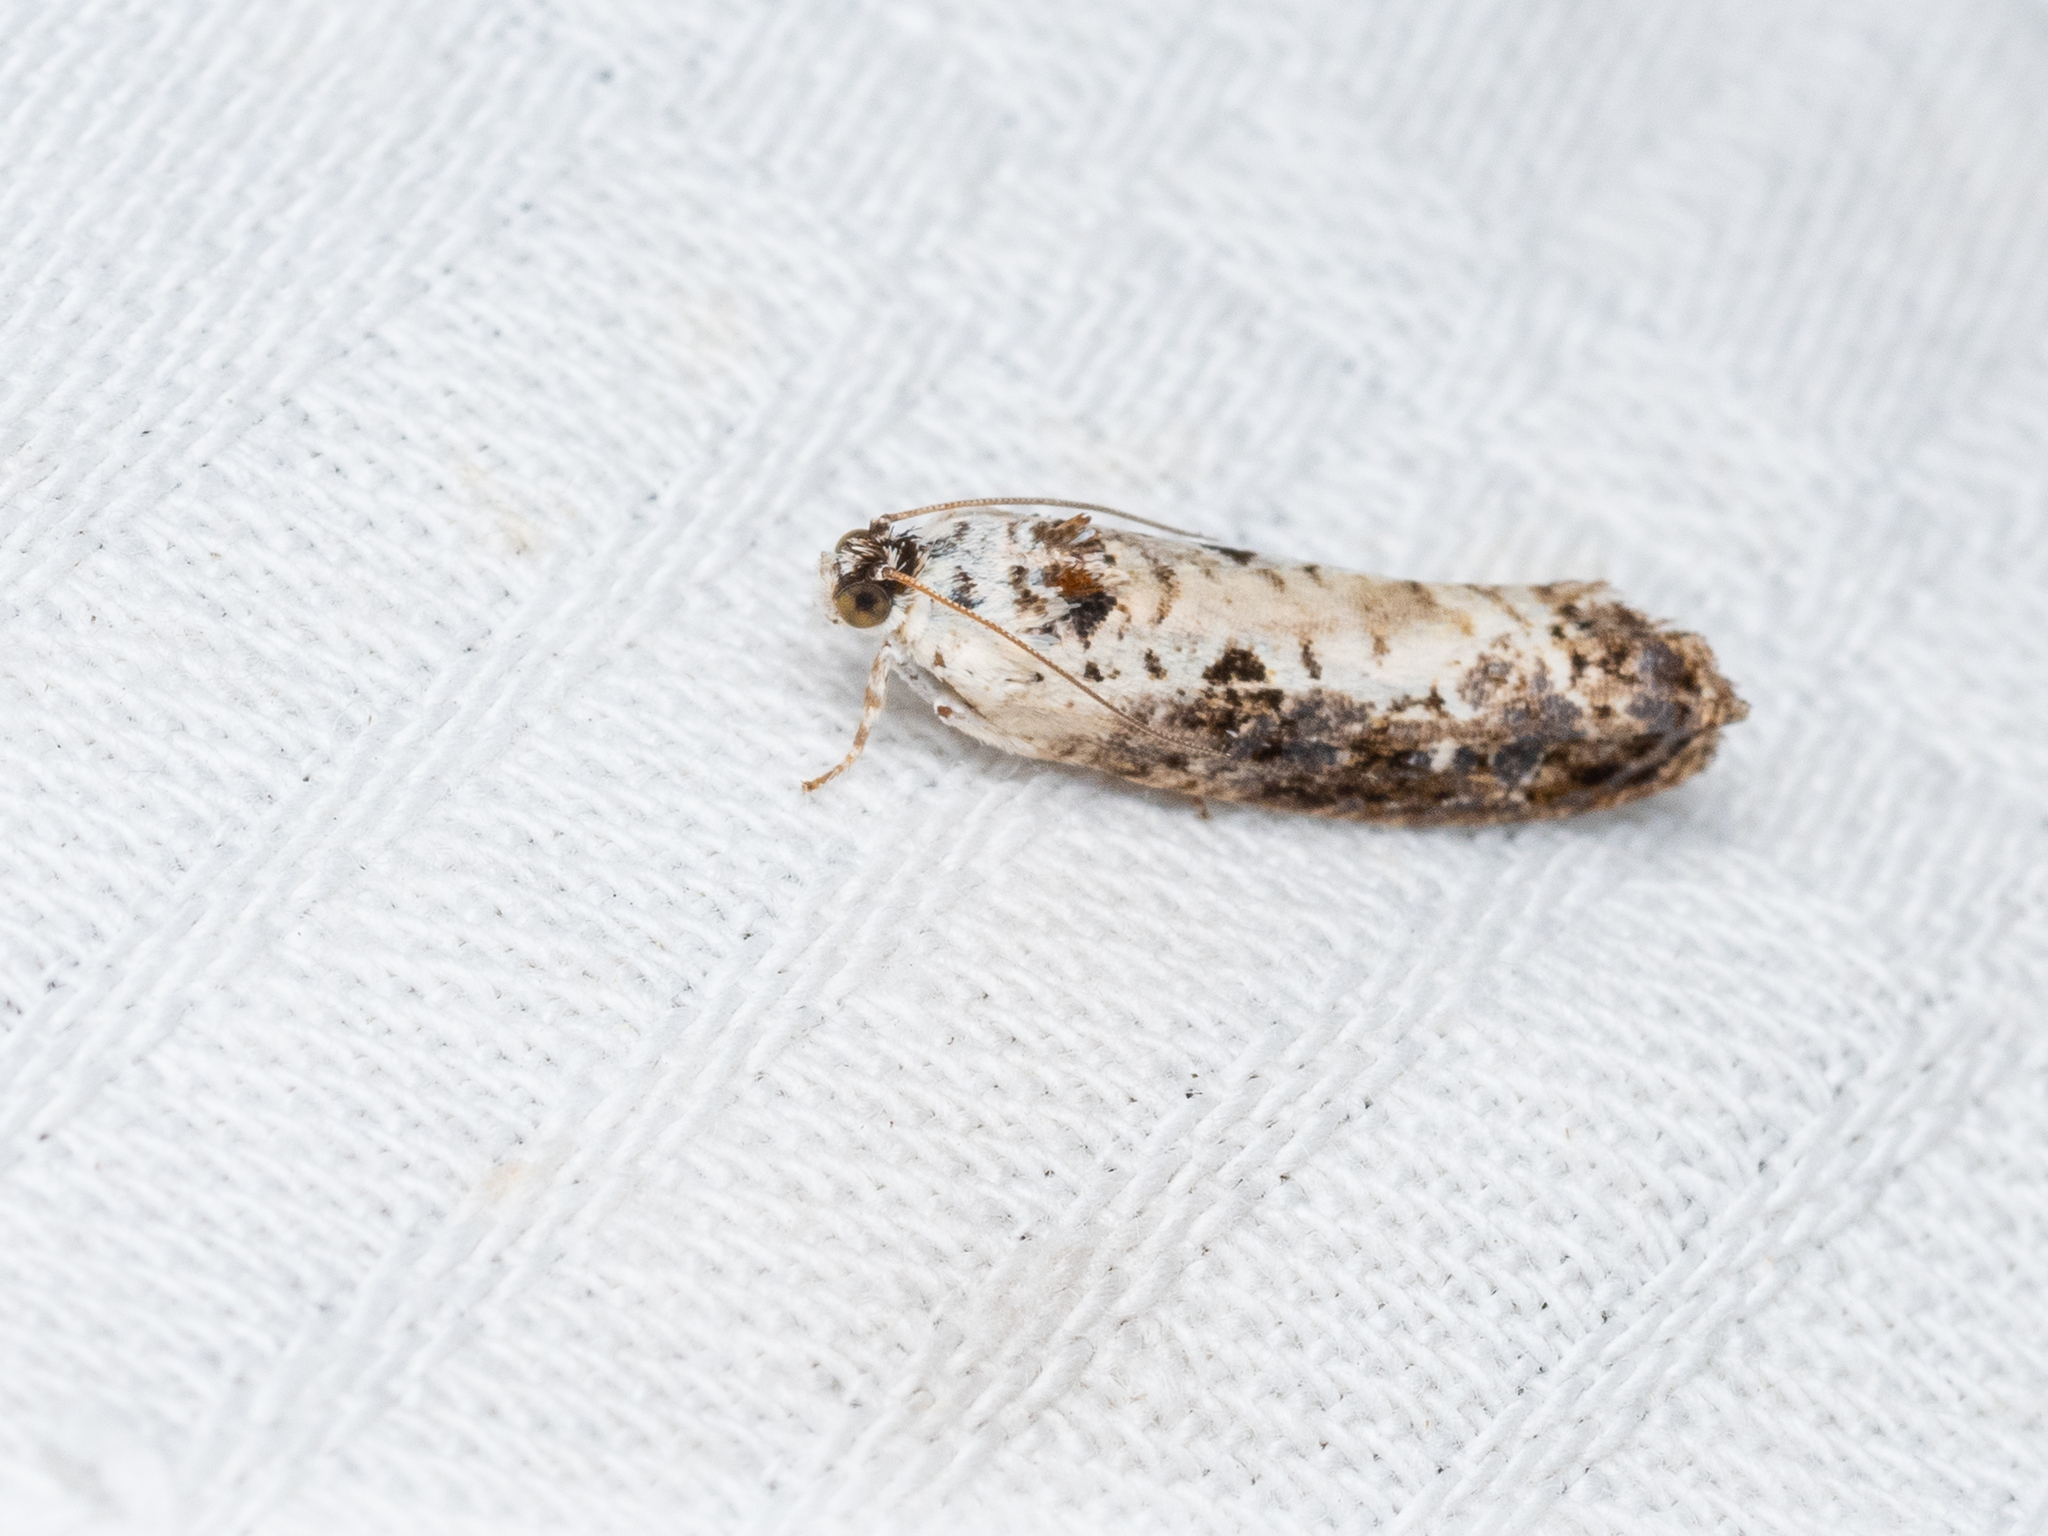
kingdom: Animalia
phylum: Arthropoda
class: Insecta
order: Lepidoptera
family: Tortricidae
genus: Hedya
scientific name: Hedya salicella
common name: Large tortricid moth
